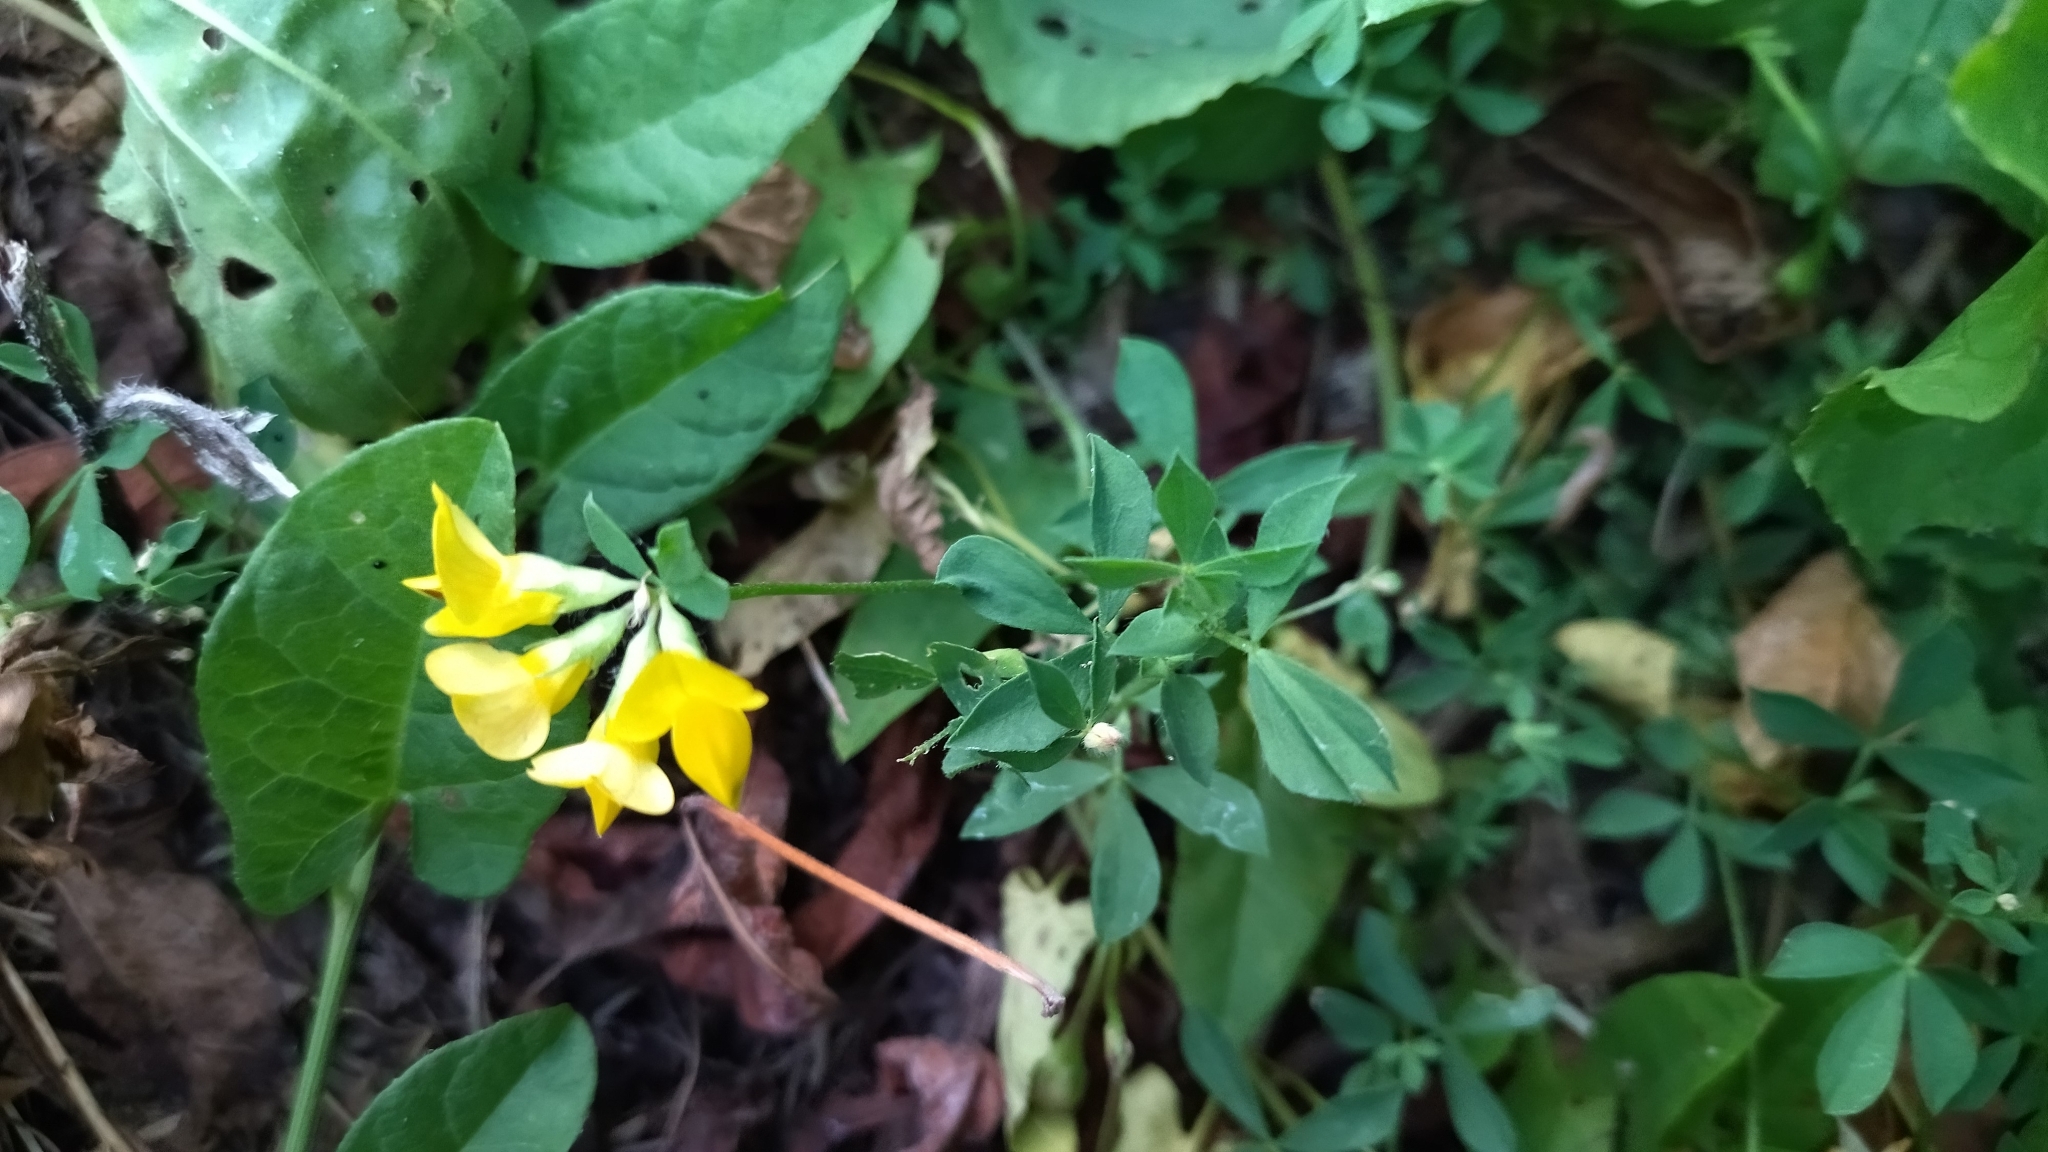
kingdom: Plantae
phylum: Tracheophyta
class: Magnoliopsida
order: Fabales
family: Fabaceae
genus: Lotus
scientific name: Lotus corniculatus
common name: Common bird's-foot-trefoil
